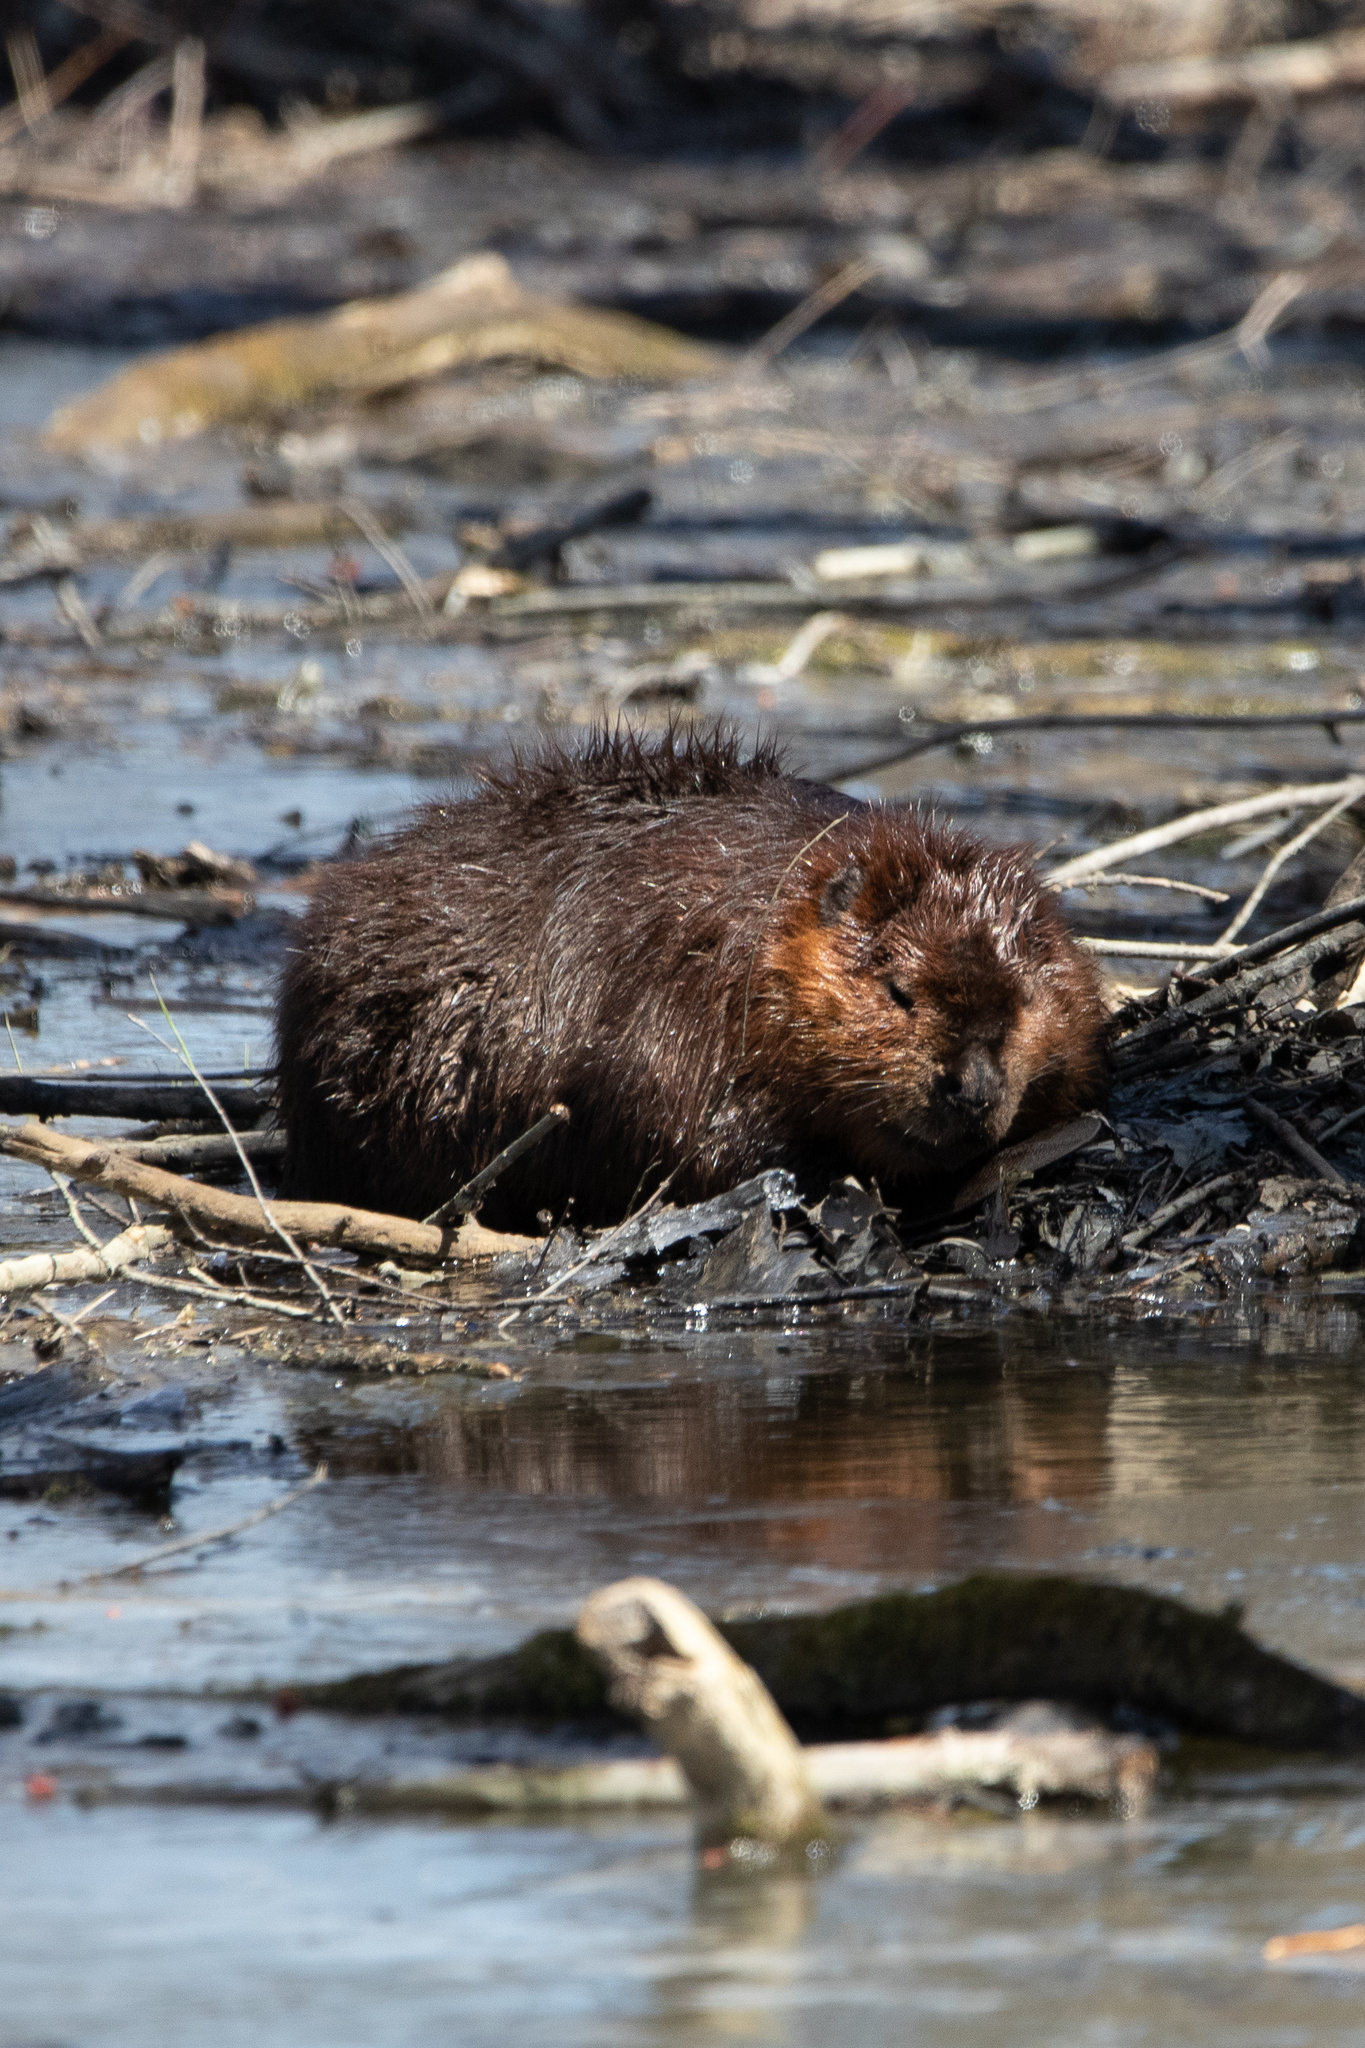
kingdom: Animalia
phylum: Chordata
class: Mammalia
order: Rodentia
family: Castoridae
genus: Castor
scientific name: Castor canadensis
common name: American beaver
